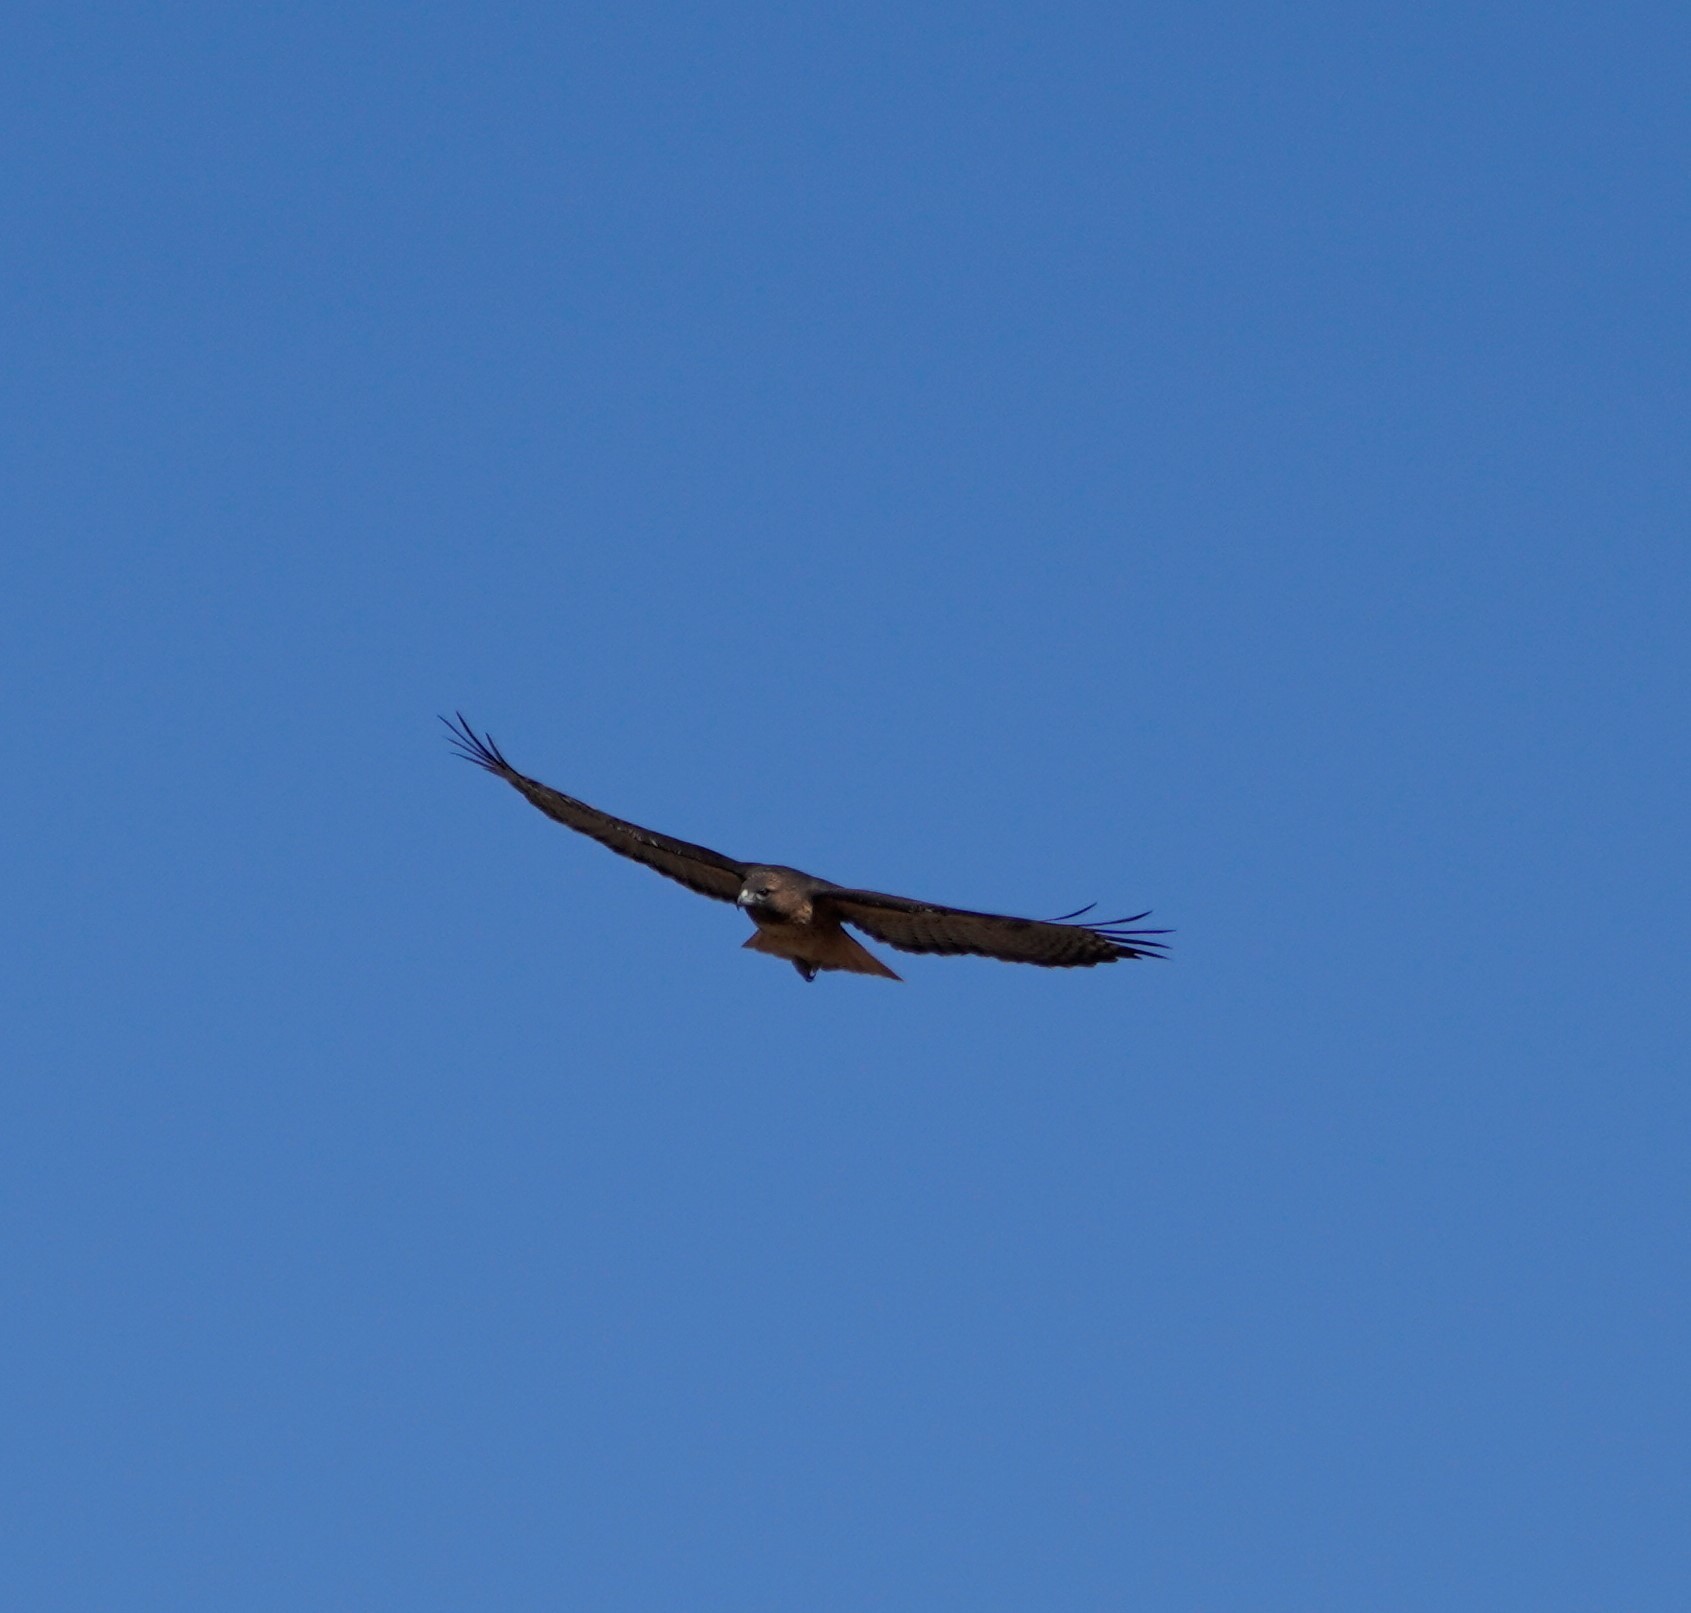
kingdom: Animalia
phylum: Chordata
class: Aves
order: Accipitriformes
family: Accipitridae
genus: Buteo
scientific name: Buteo jamaicensis
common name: Red-tailed hawk
